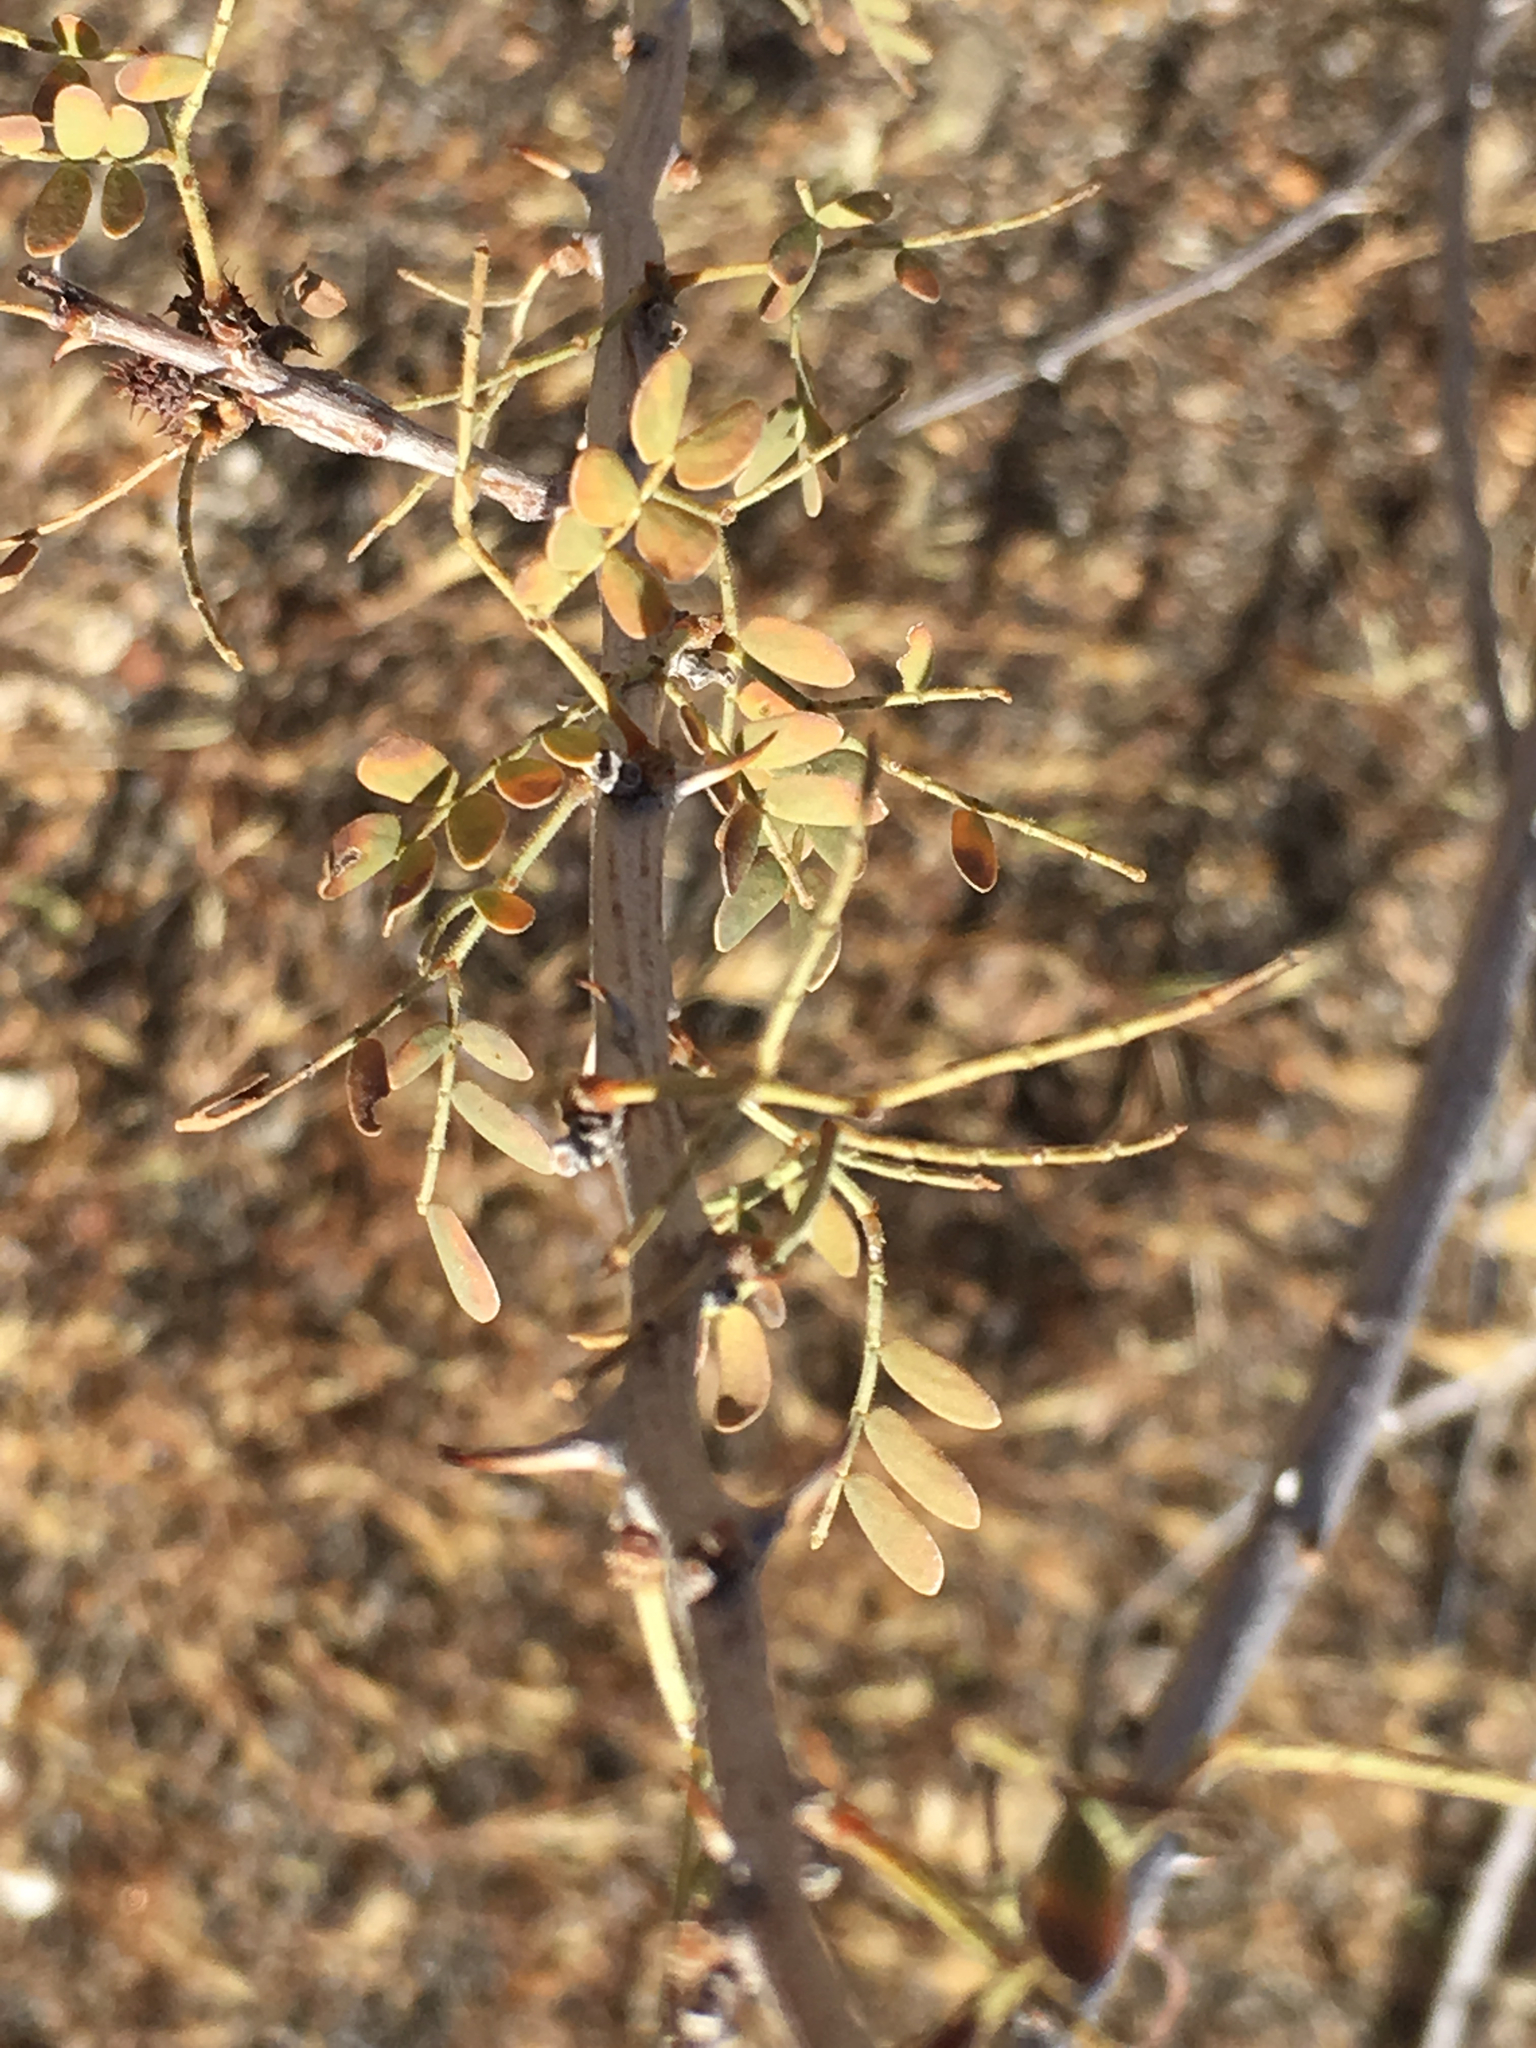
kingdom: Plantae
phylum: Tracheophyta
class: Magnoliopsida
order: Fabales
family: Fabaceae
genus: Senegalia
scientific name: Senegalia greggii
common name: Texas-mimosa
